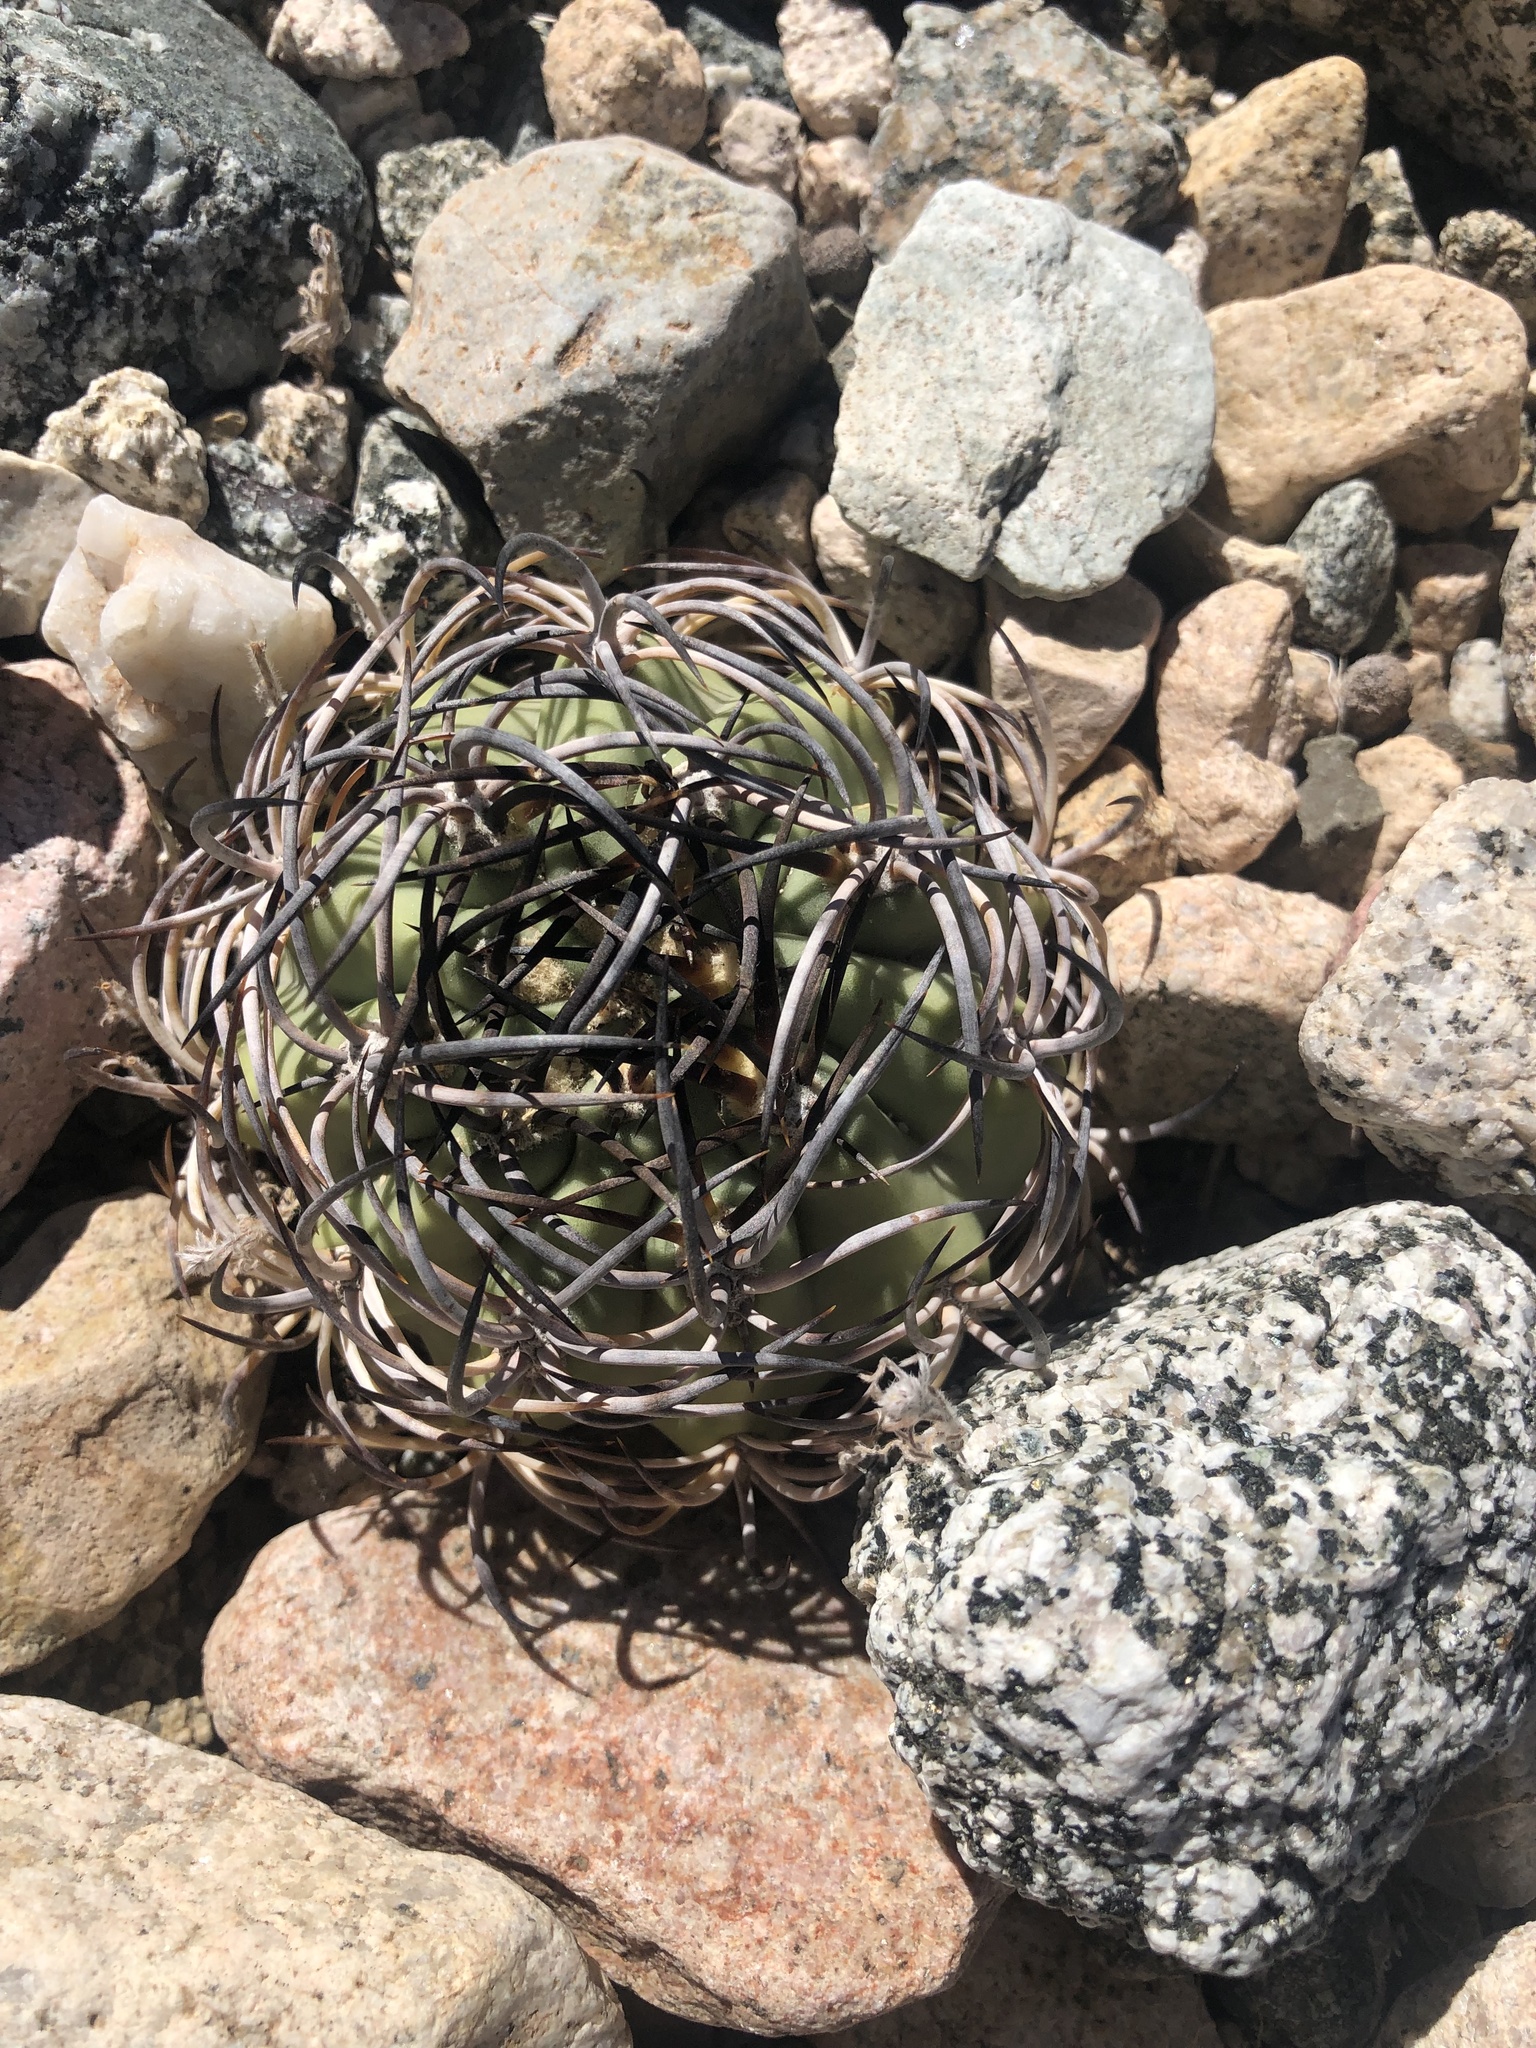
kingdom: Plantae
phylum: Tracheophyta
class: Magnoliopsida
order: Caryophyllales
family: Cactaceae
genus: Eriosyce
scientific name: Eriosyce aurata
